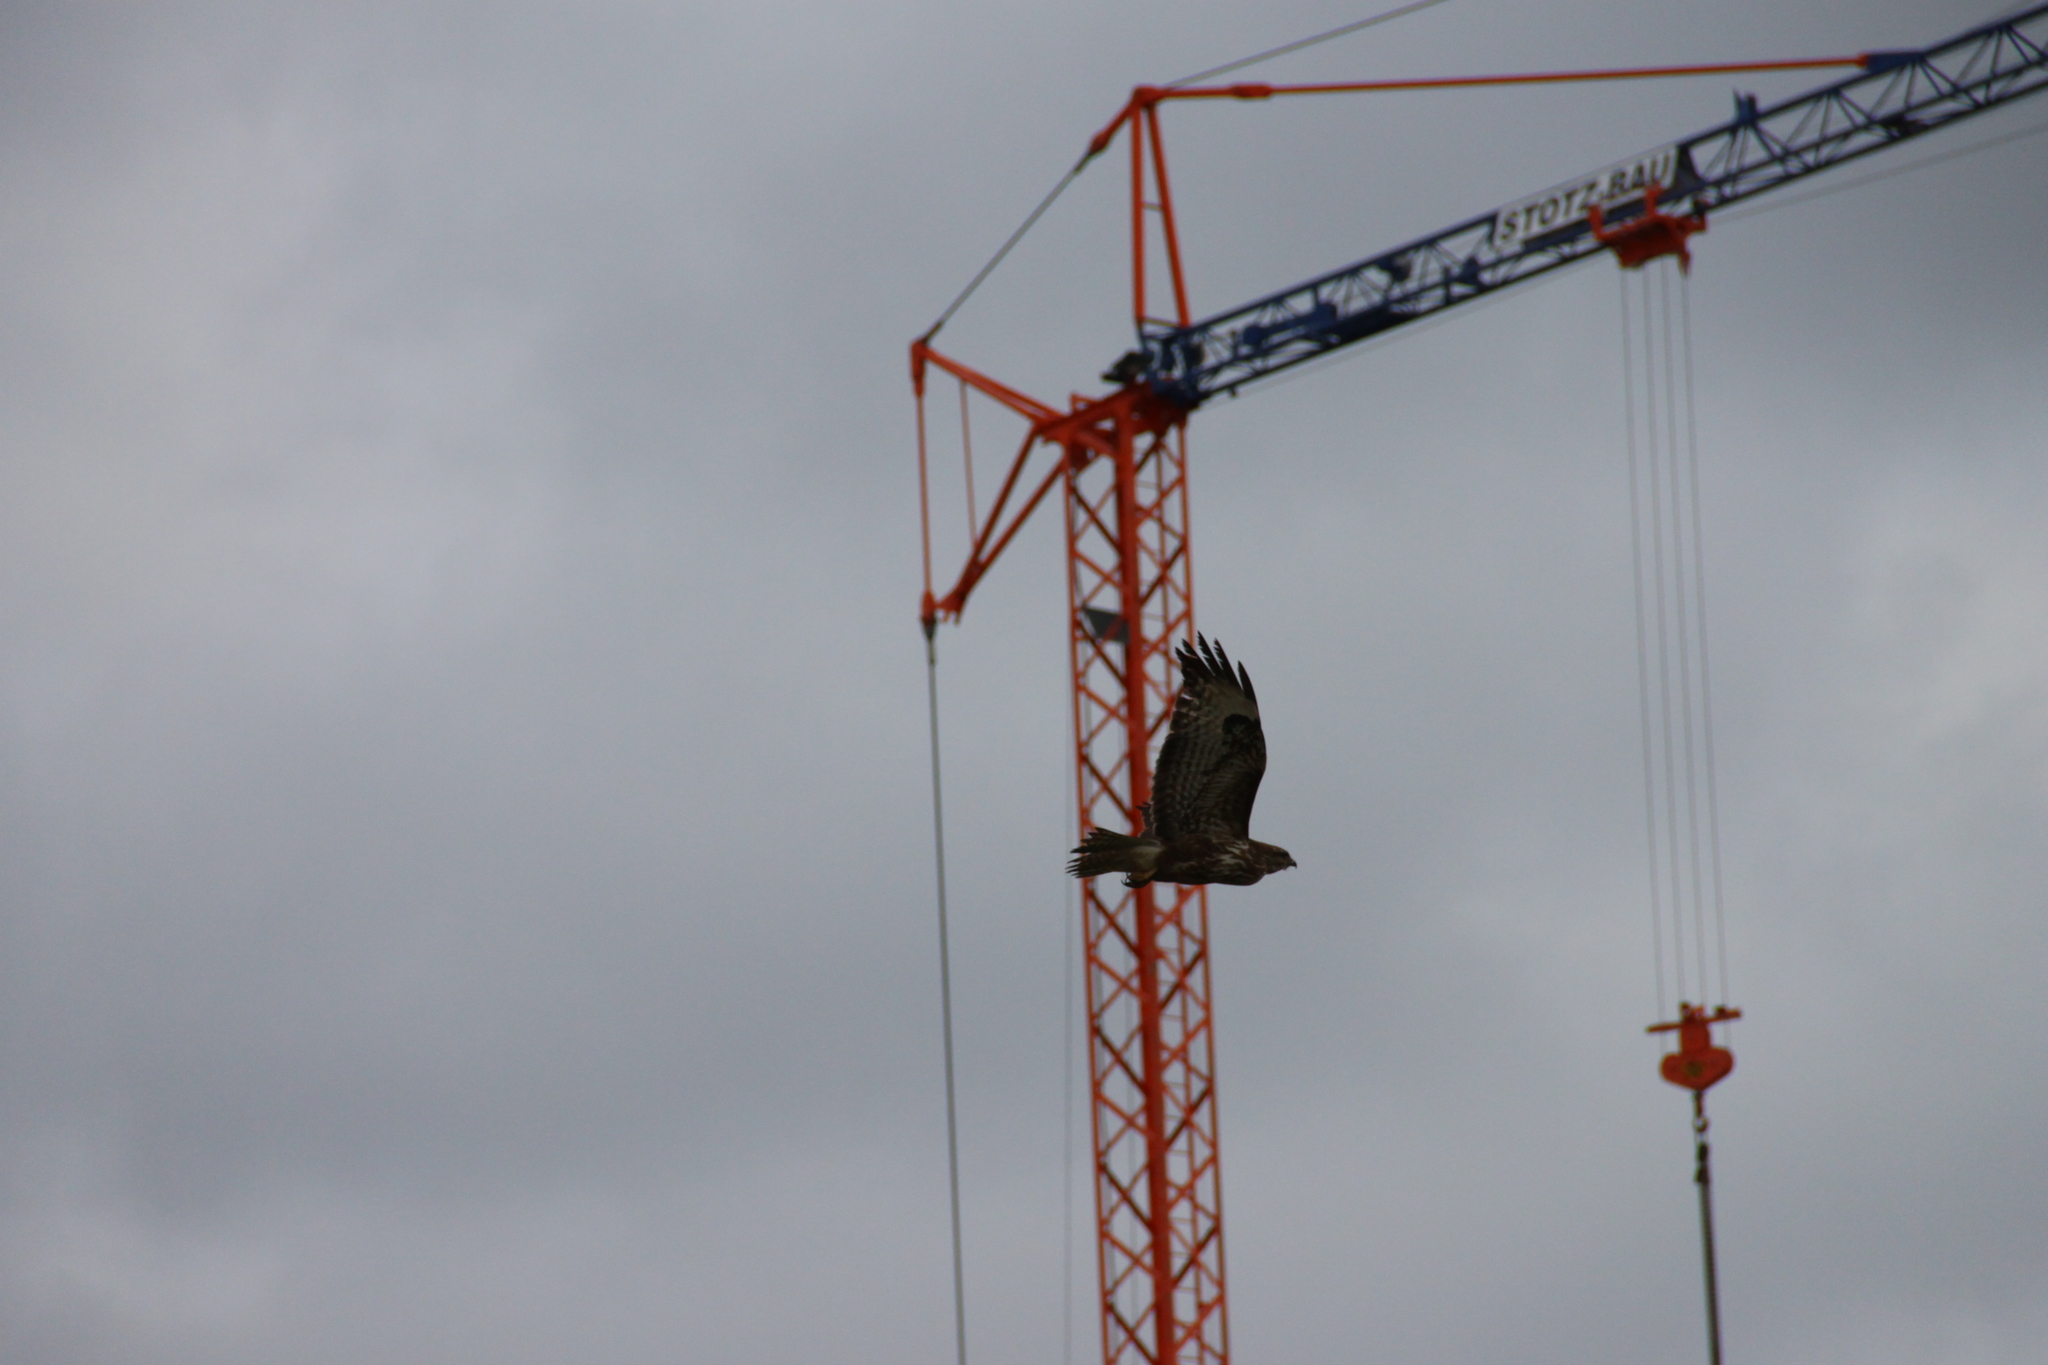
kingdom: Animalia
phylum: Chordata
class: Aves
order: Accipitriformes
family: Accipitridae
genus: Buteo
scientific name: Buteo buteo
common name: Common buzzard
